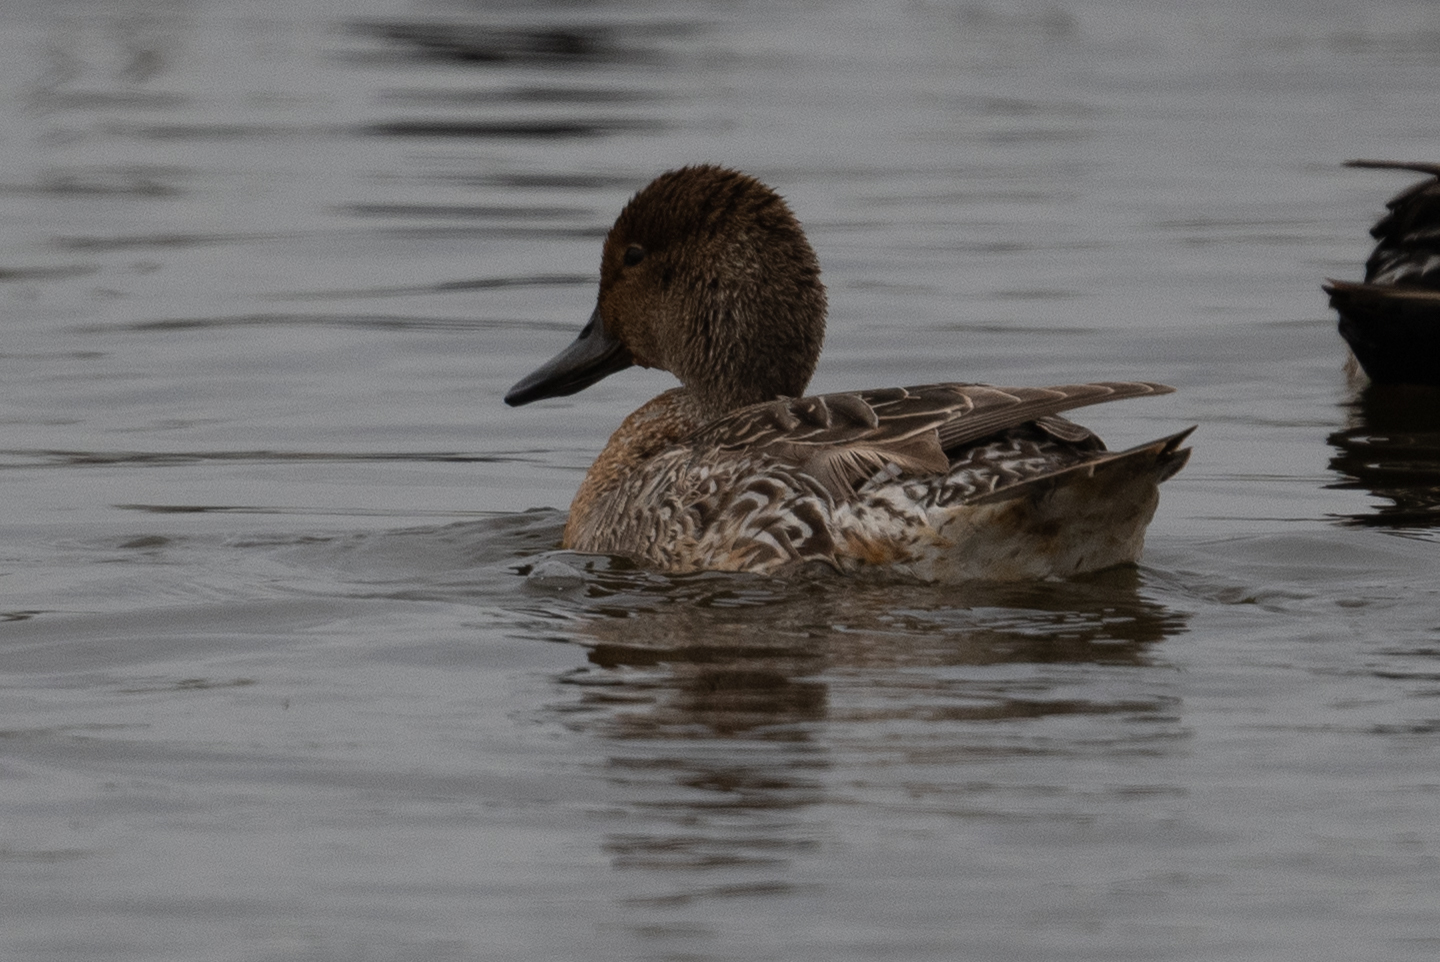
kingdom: Animalia
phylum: Chordata
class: Aves
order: Anseriformes
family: Anatidae
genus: Anas
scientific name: Anas acuta
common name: Northern pintail
